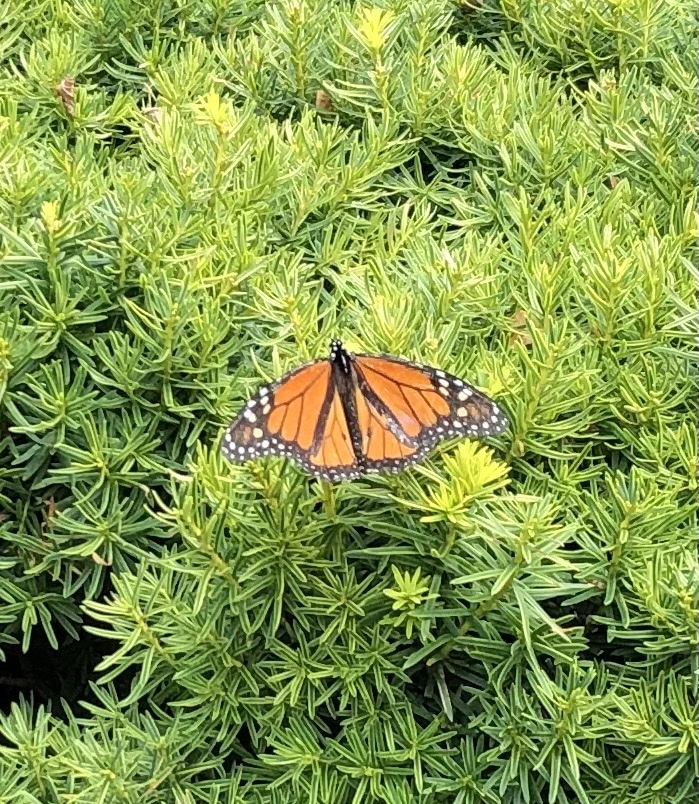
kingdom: Animalia
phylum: Arthropoda
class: Insecta
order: Lepidoptera
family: Nymphalidae
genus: Danaus
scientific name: Danaus plexippus
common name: Monarch
